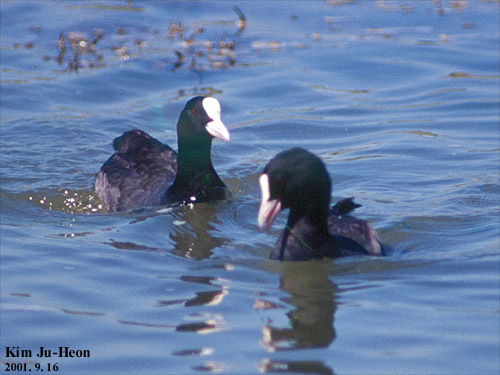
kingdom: Animalia
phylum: Chordata
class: Aves
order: Gruiformes
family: Rallidae
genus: Fulica
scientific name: Fulica atra
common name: Eurasian coot
